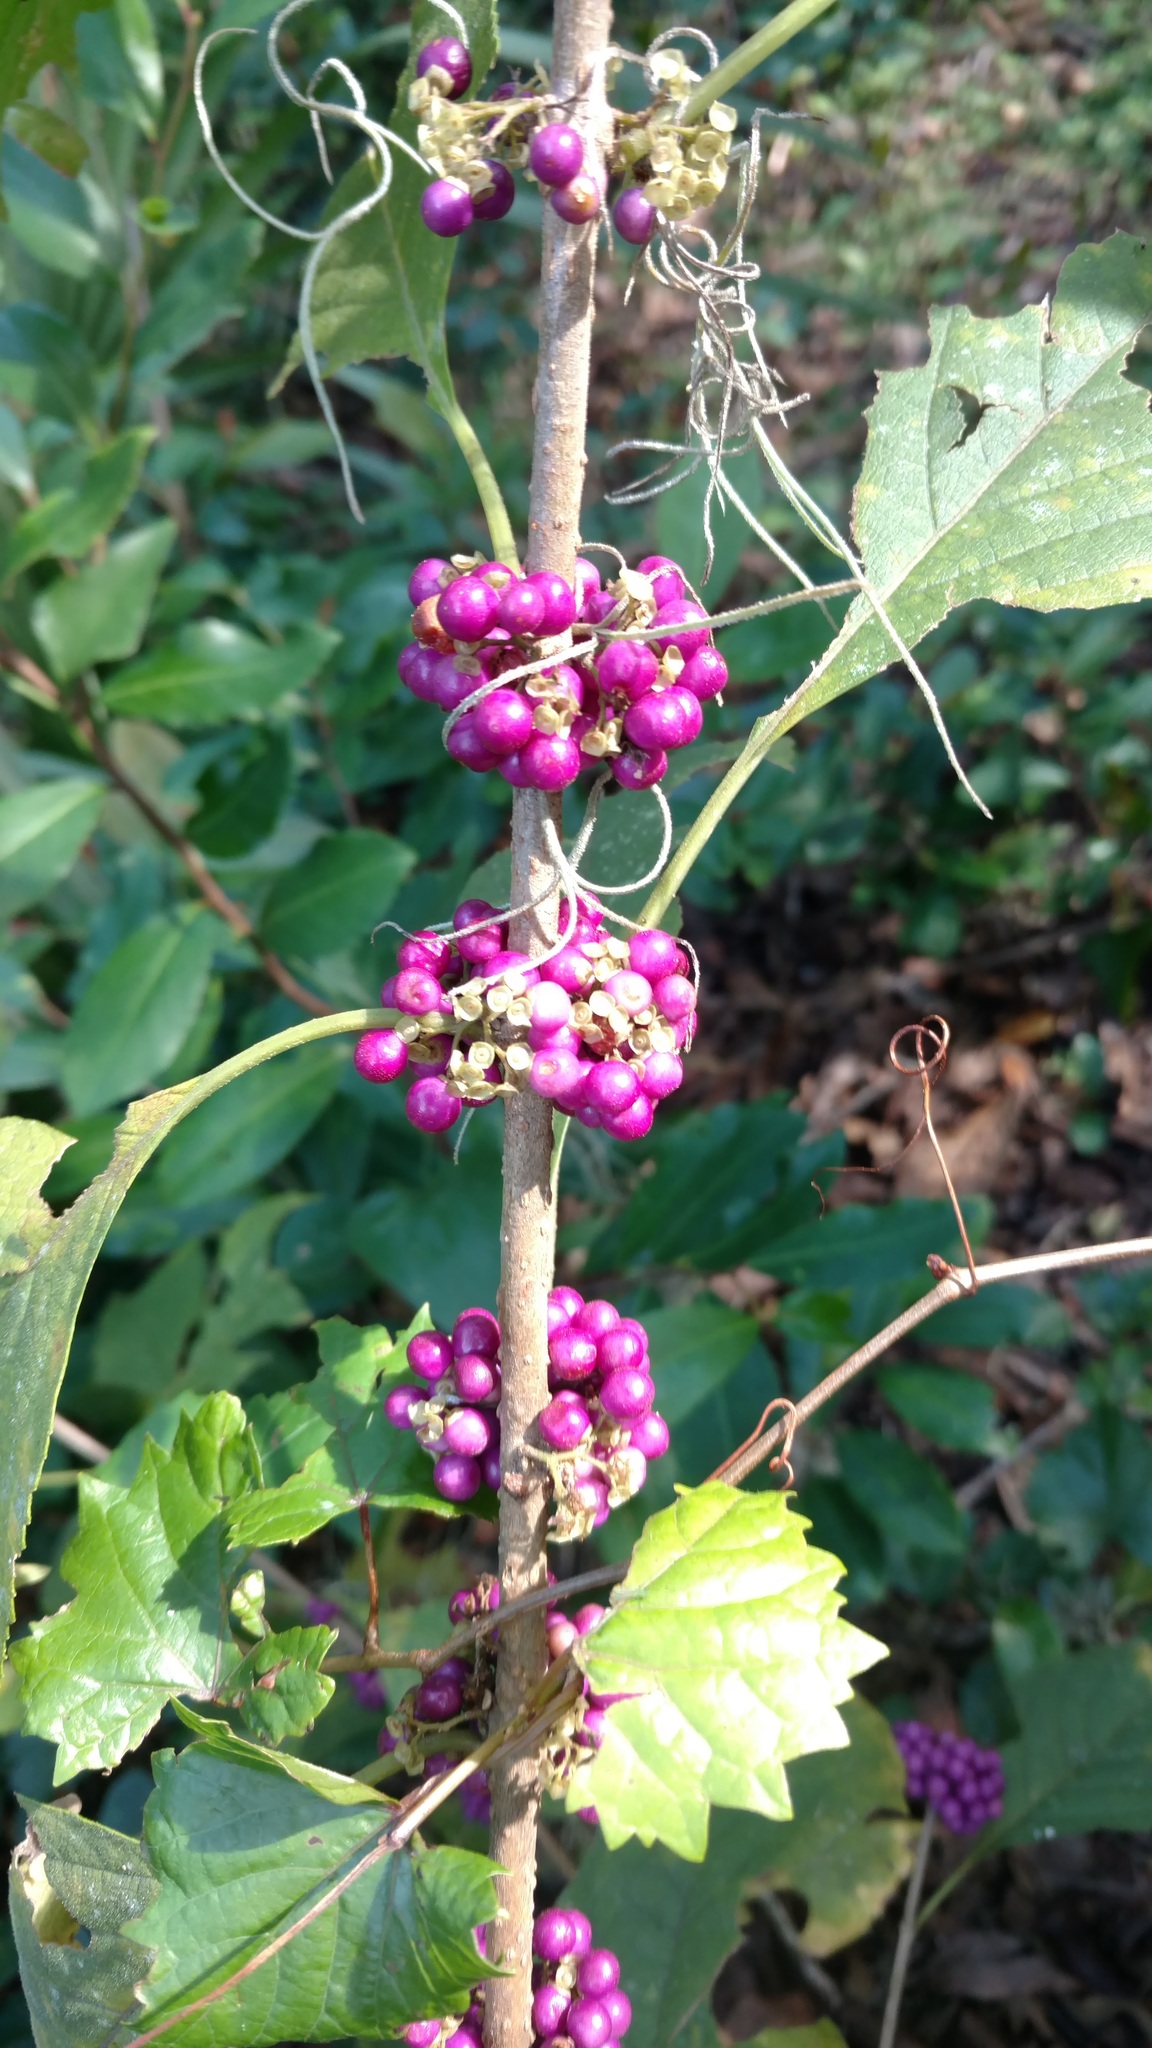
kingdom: Plantae
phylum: Tracheophyta
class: Magnoliopsida
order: Lamiales
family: Lamiaceae
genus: Callicarpa
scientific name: Callicarpa americana
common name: American beautyberry
